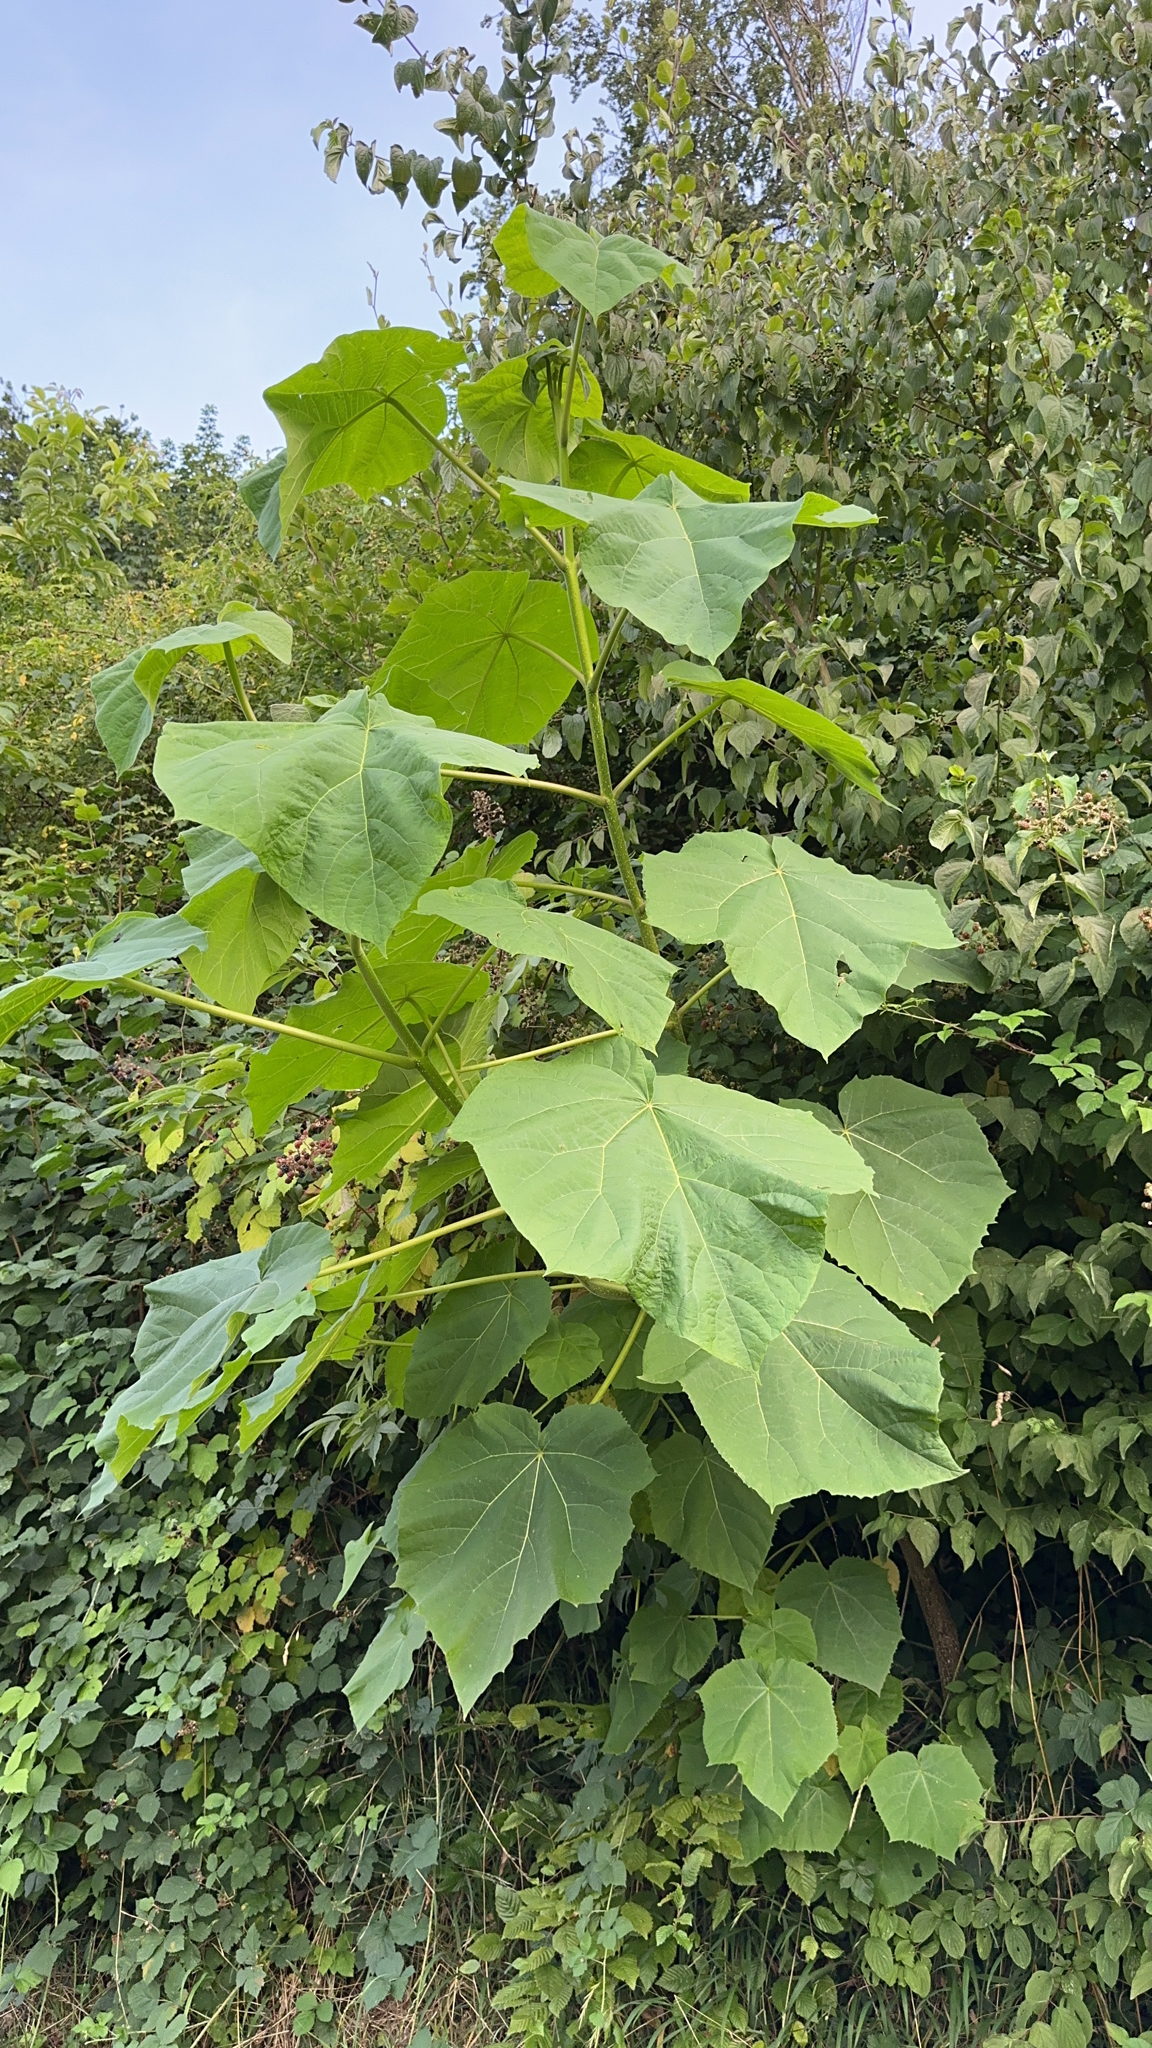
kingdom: Plantae
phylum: Tracheophyta
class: Magnoliopsida
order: Lamiales
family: Paulowniaceae
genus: Paulownia
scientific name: Paulownia tomentosa
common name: Foxglove-tree
